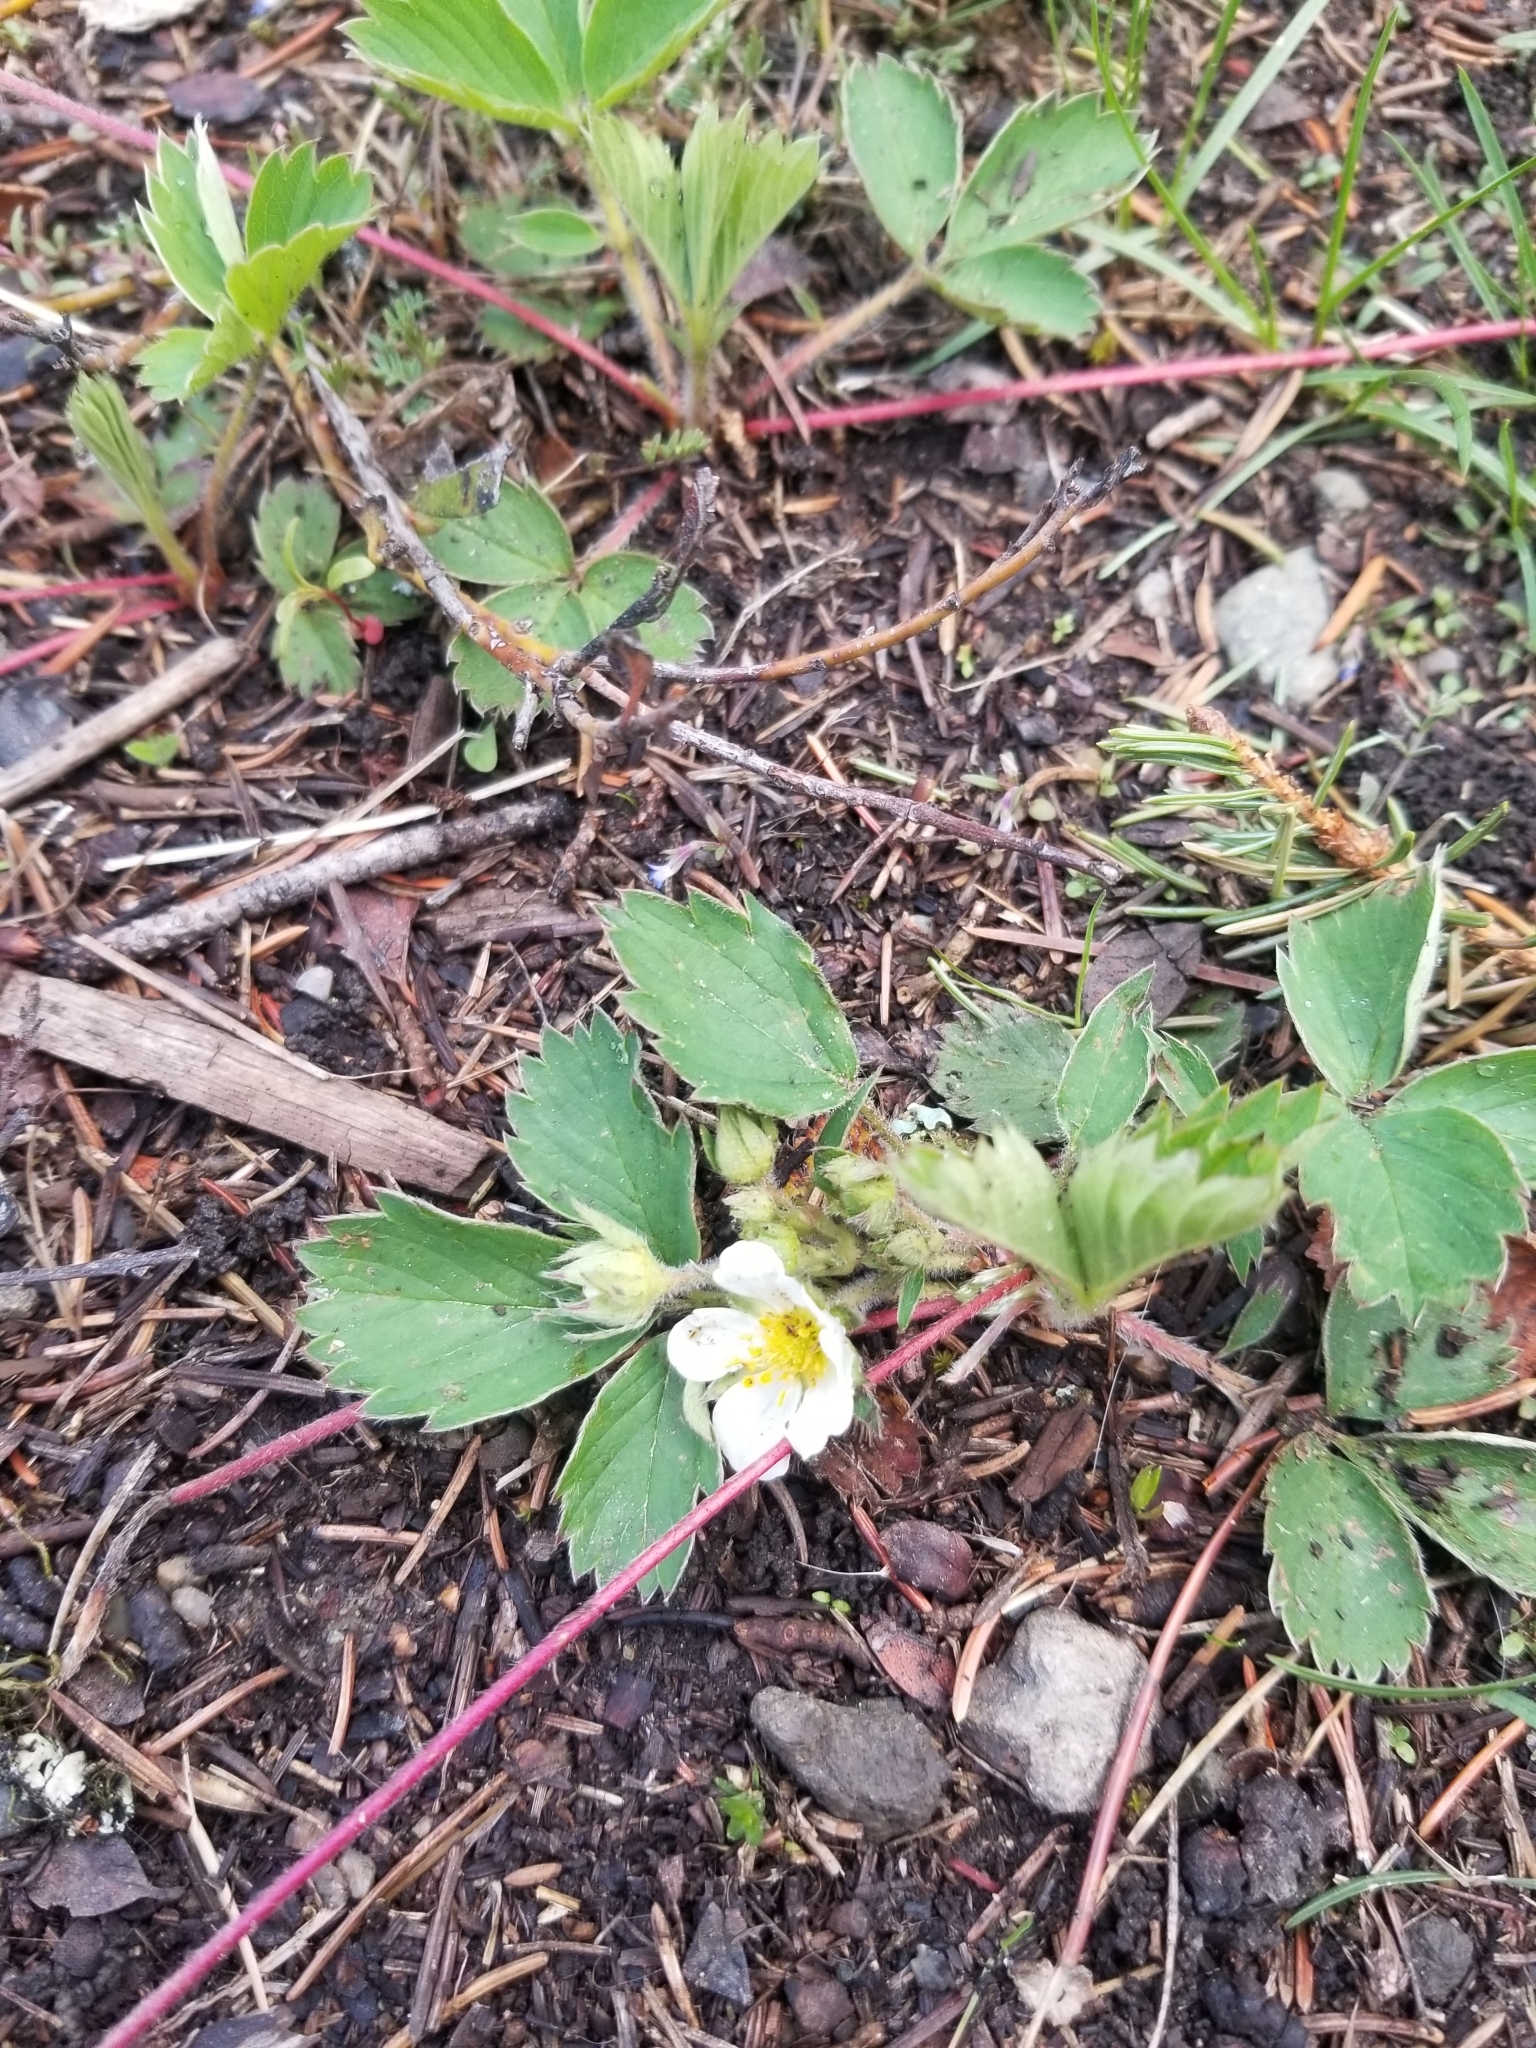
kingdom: Plantae
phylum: Tracheophyta
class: Magnoliopsida
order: Rosales
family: Rosaceae
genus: Fragaria
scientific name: Fragaria virginiana
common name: Thickleaved wild strawberry
